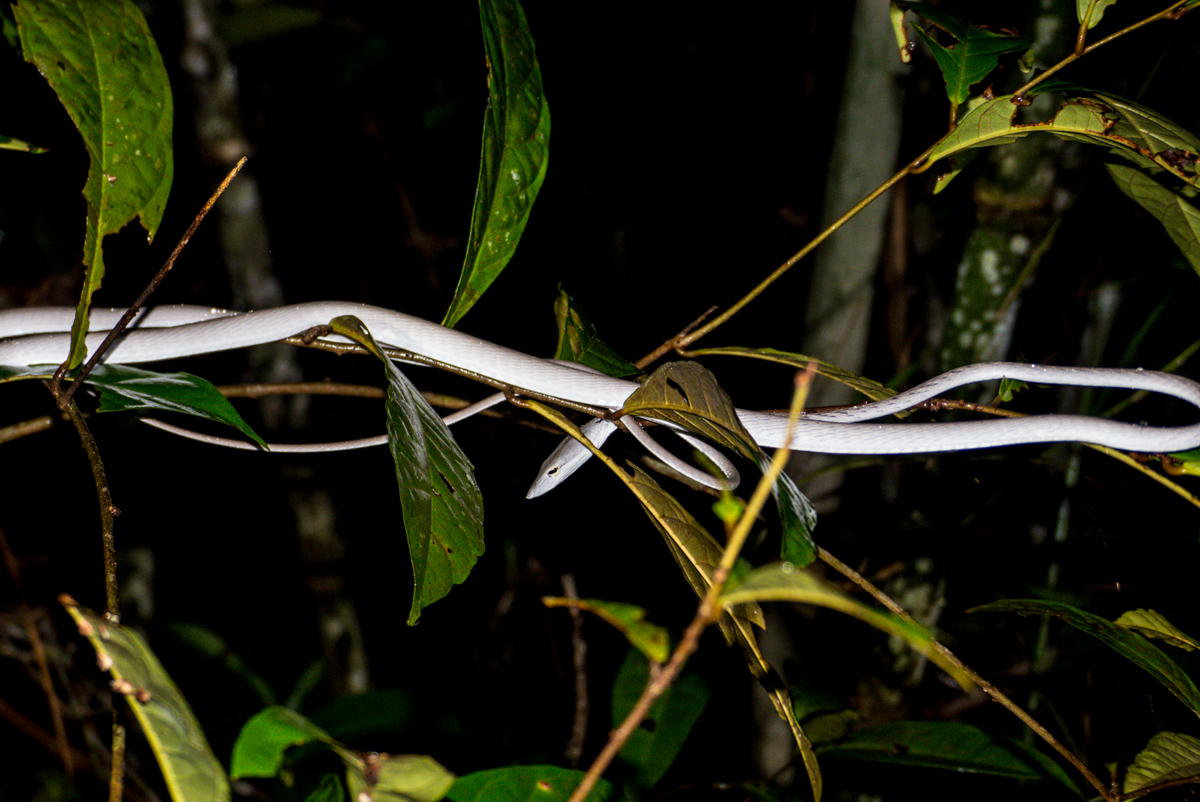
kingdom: Animalia
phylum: Chordata
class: Squamata
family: Colubridae
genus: Ahaetulla
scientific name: Ahaetulla prasina
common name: Oriental whip snake
